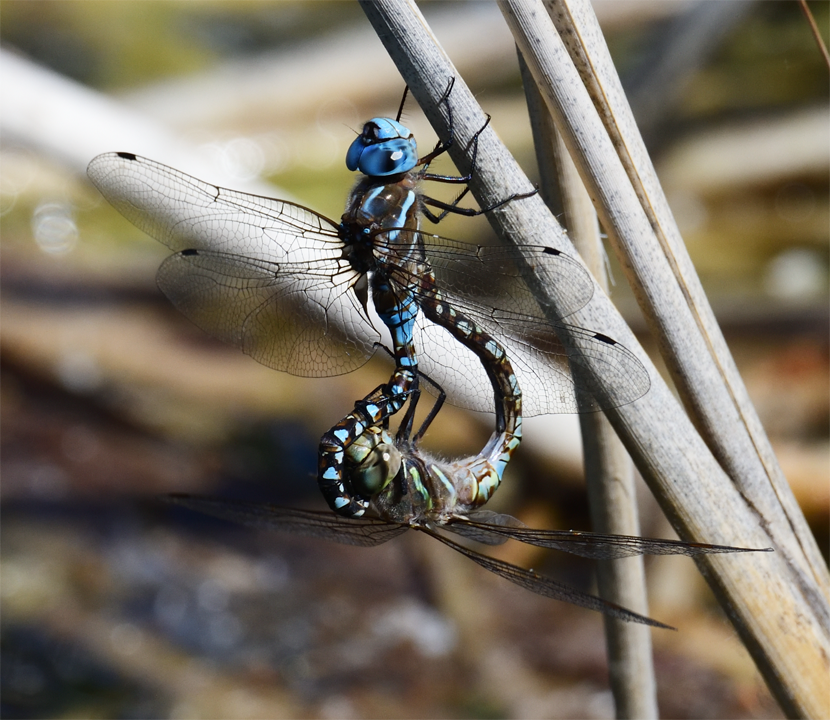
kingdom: Animalia
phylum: Arthropoda
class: Insecta
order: Odonata
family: Aeshnidae
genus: Rhionaeschna
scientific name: Rhionaeschna multicolor
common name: Blue-eyed darner
